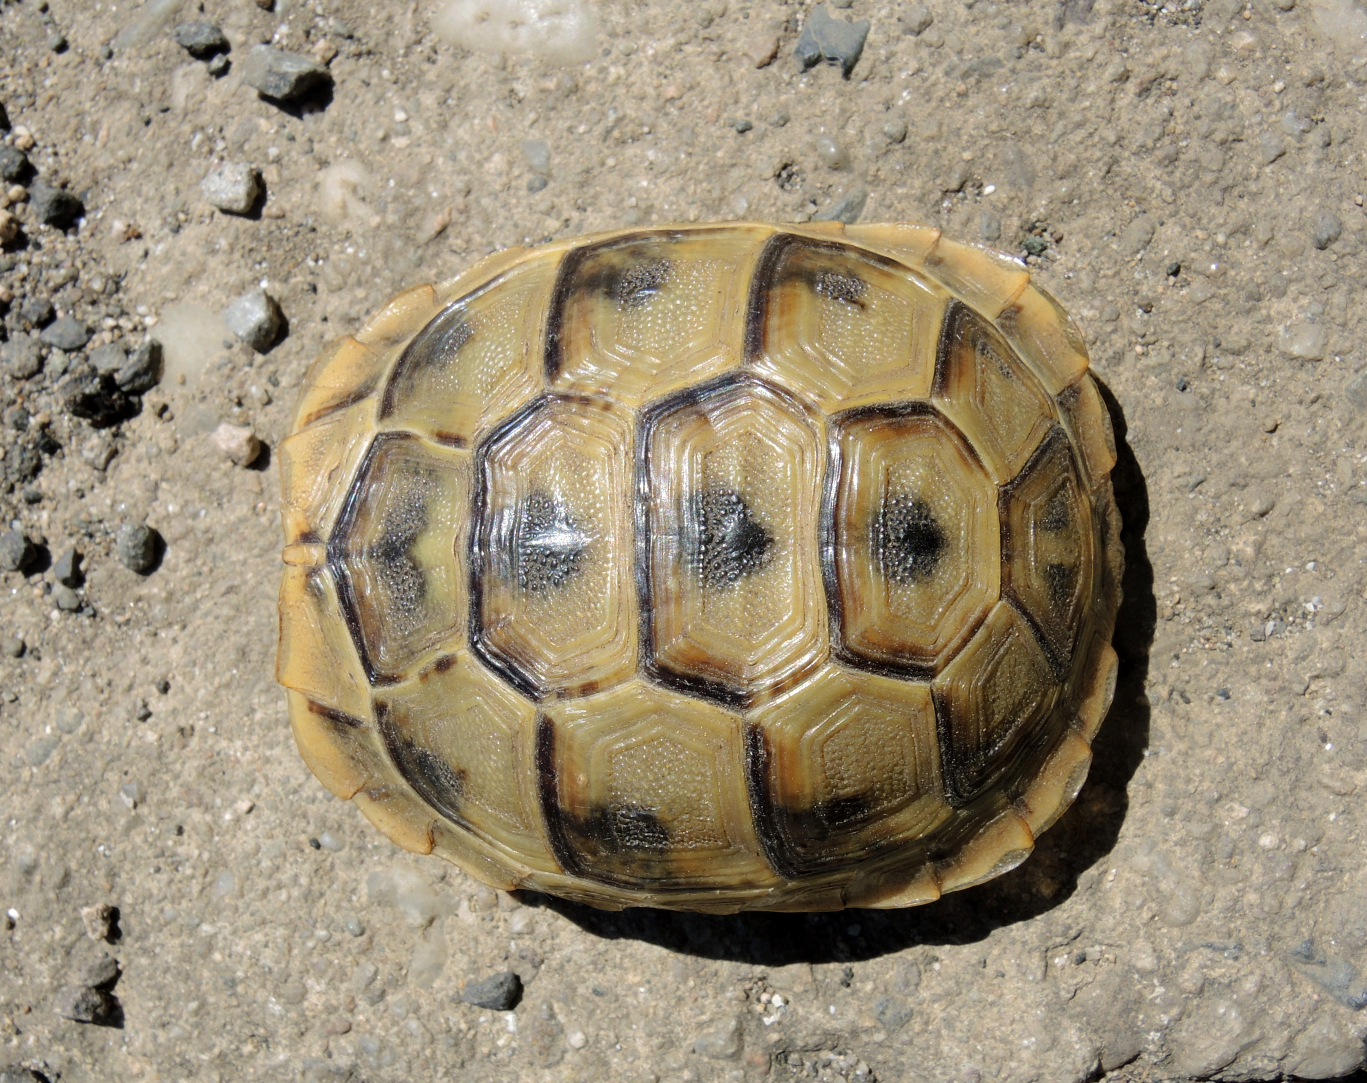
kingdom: Animalia
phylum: Chordata
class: Testudines
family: Testudinidae
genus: Testudo
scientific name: Testudo graeca
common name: Common tortoise
